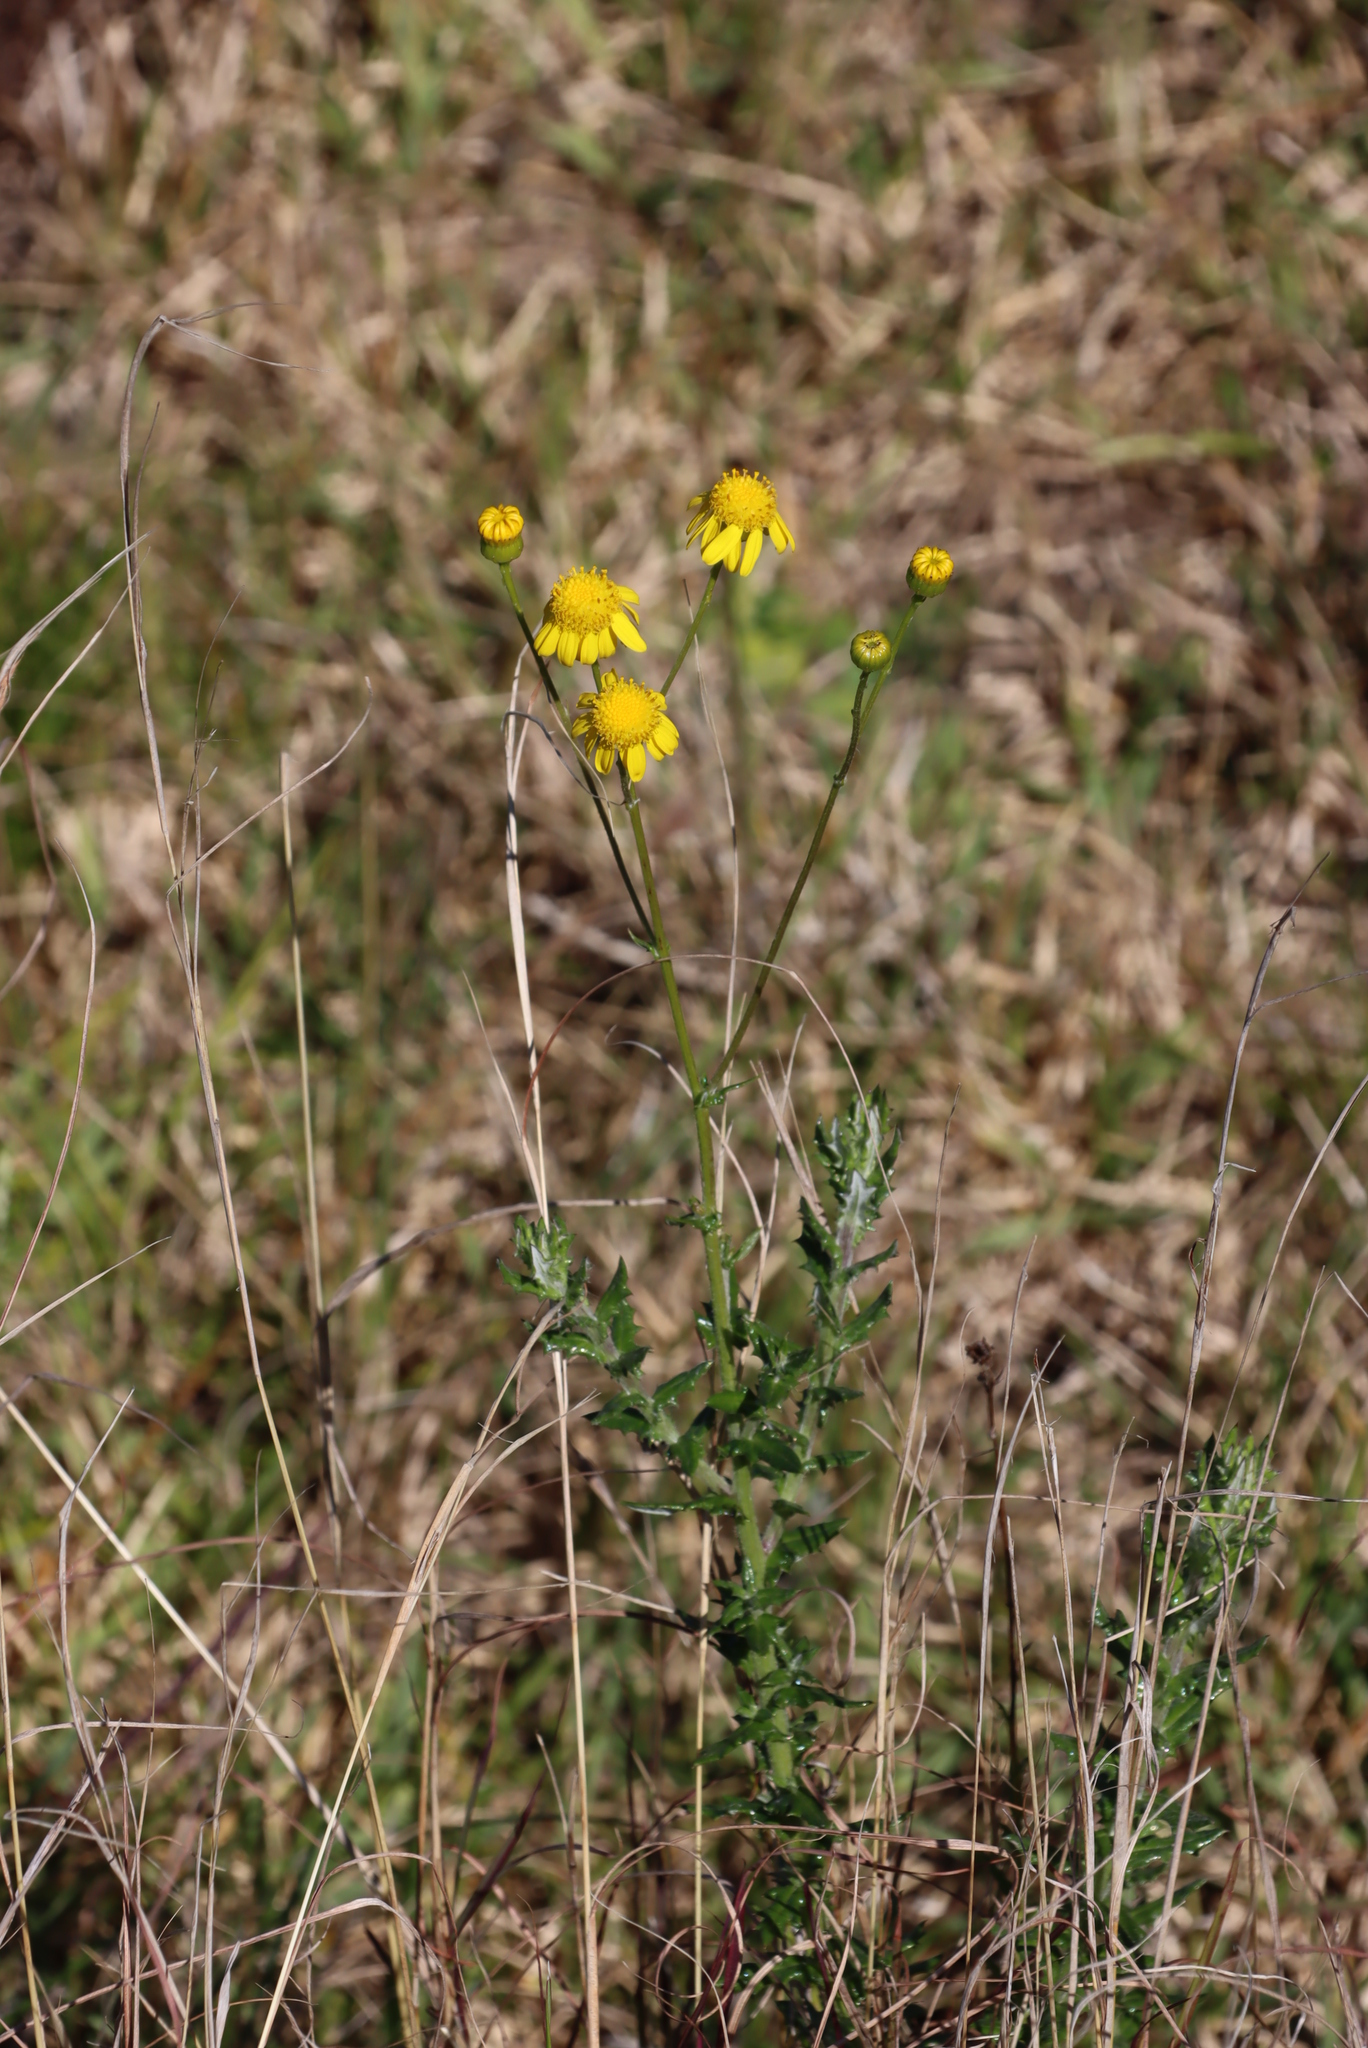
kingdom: Plantae
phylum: Tracheophyta
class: Magnoliopsida
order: Asterales
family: Asteraceae
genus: Senecio
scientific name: Senecio ilicifolius
